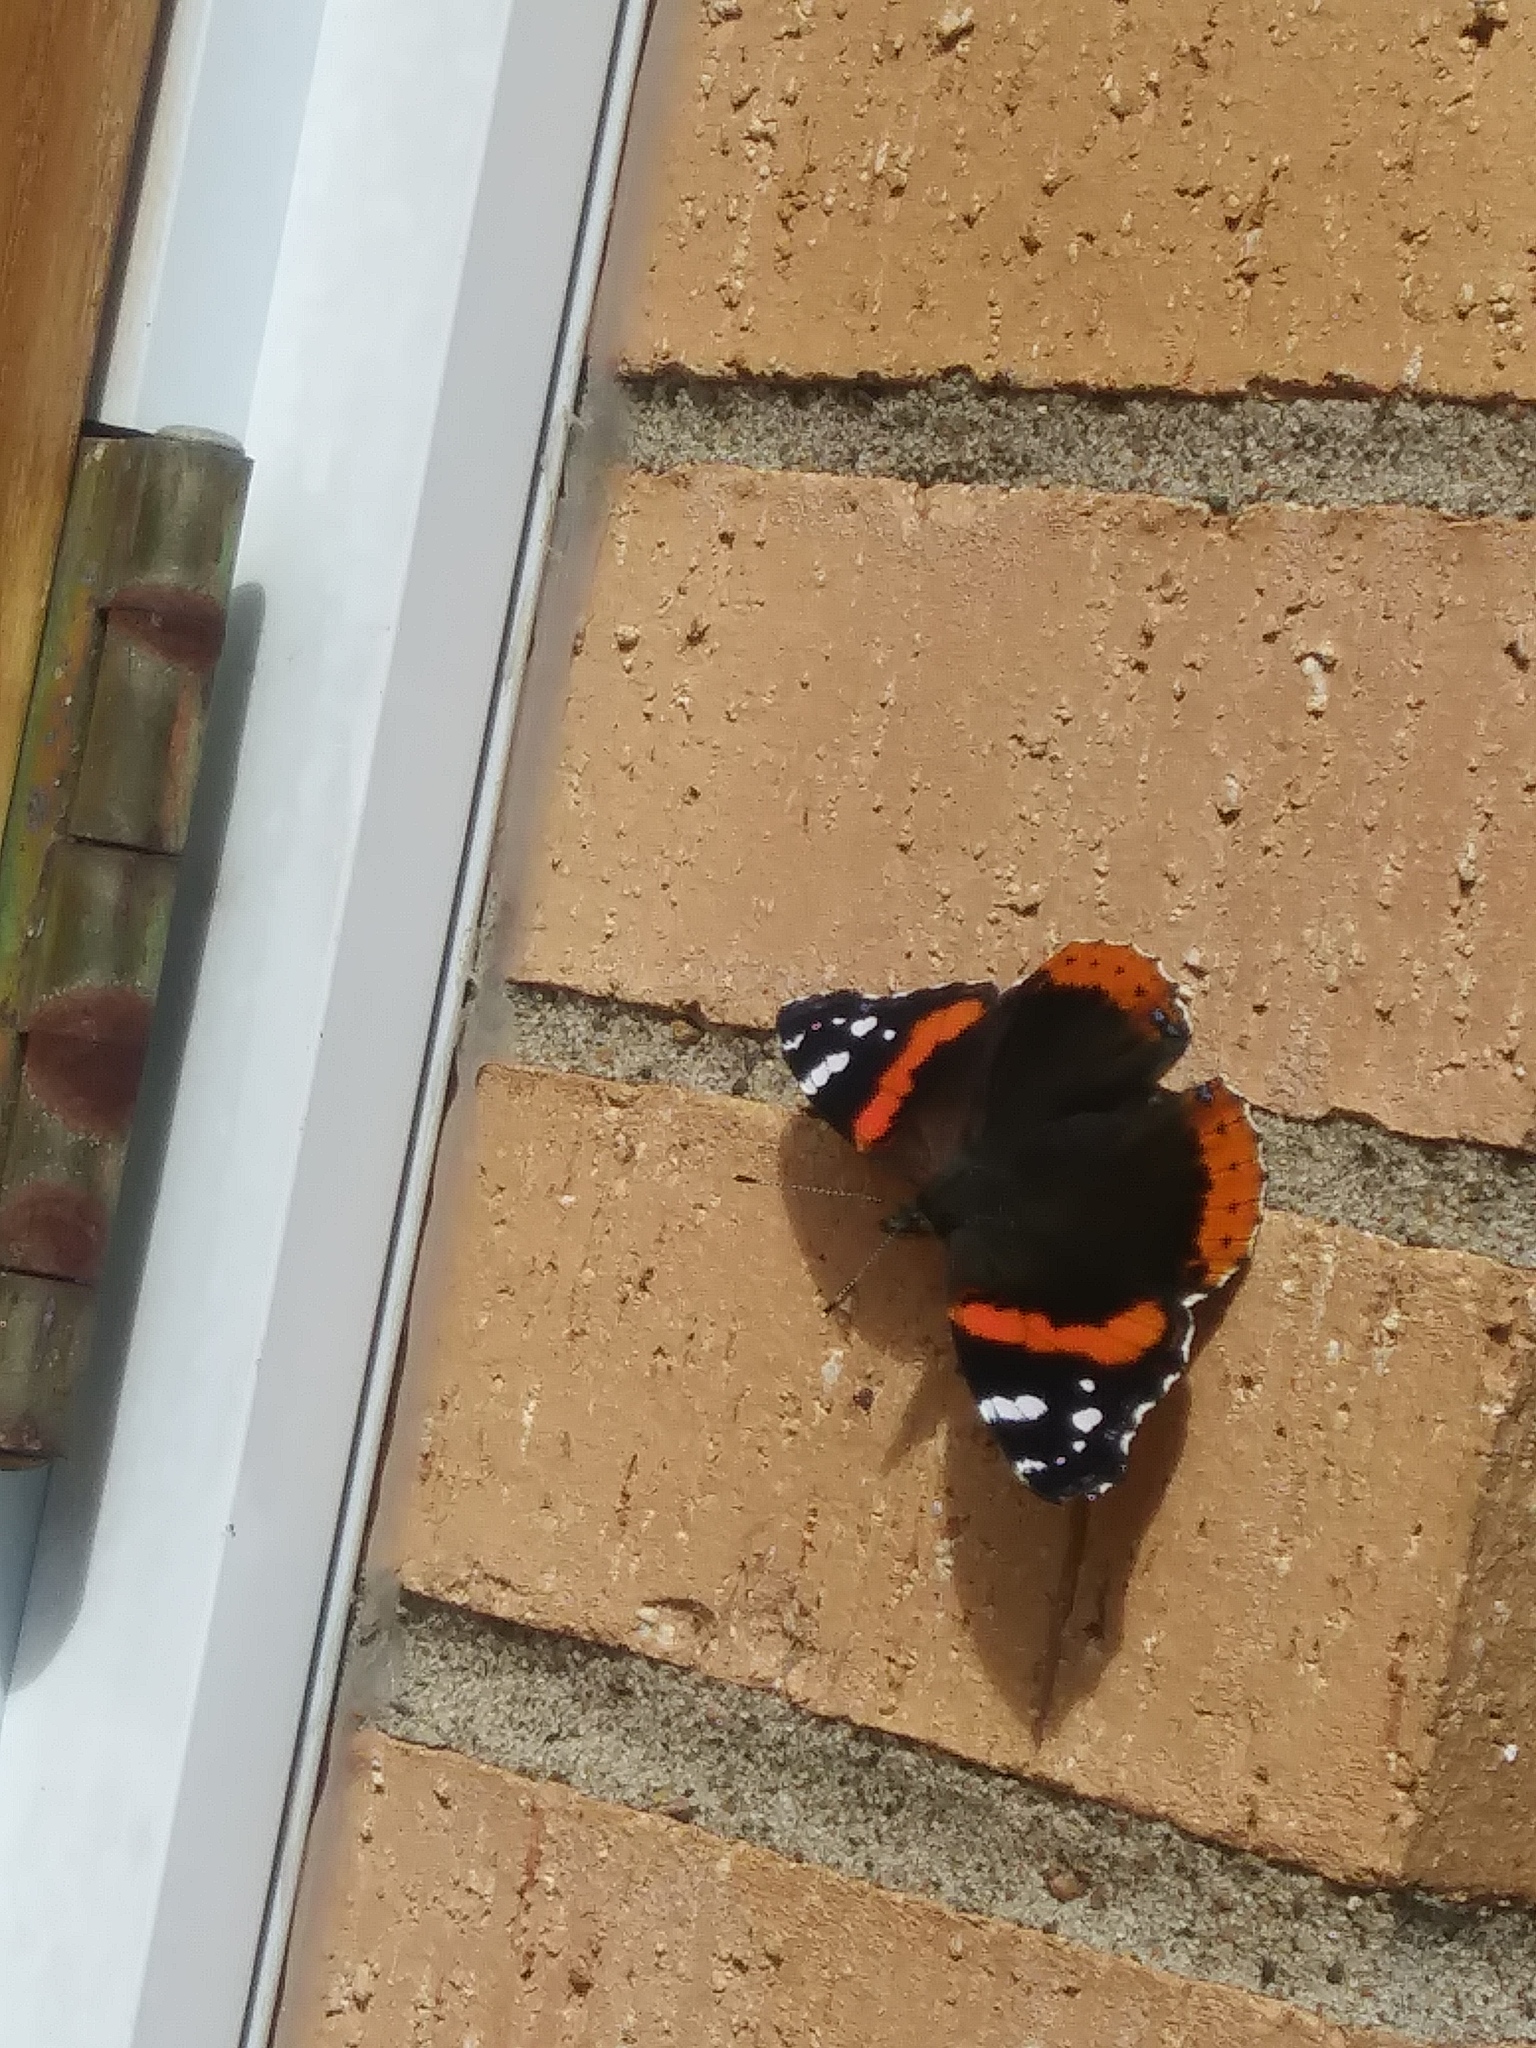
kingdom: Animalia
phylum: Arthropoda
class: Insecta
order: Lepidoptera
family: Nymphalidae
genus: Vanessa
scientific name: Vanessa atalanta
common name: Red admiral
